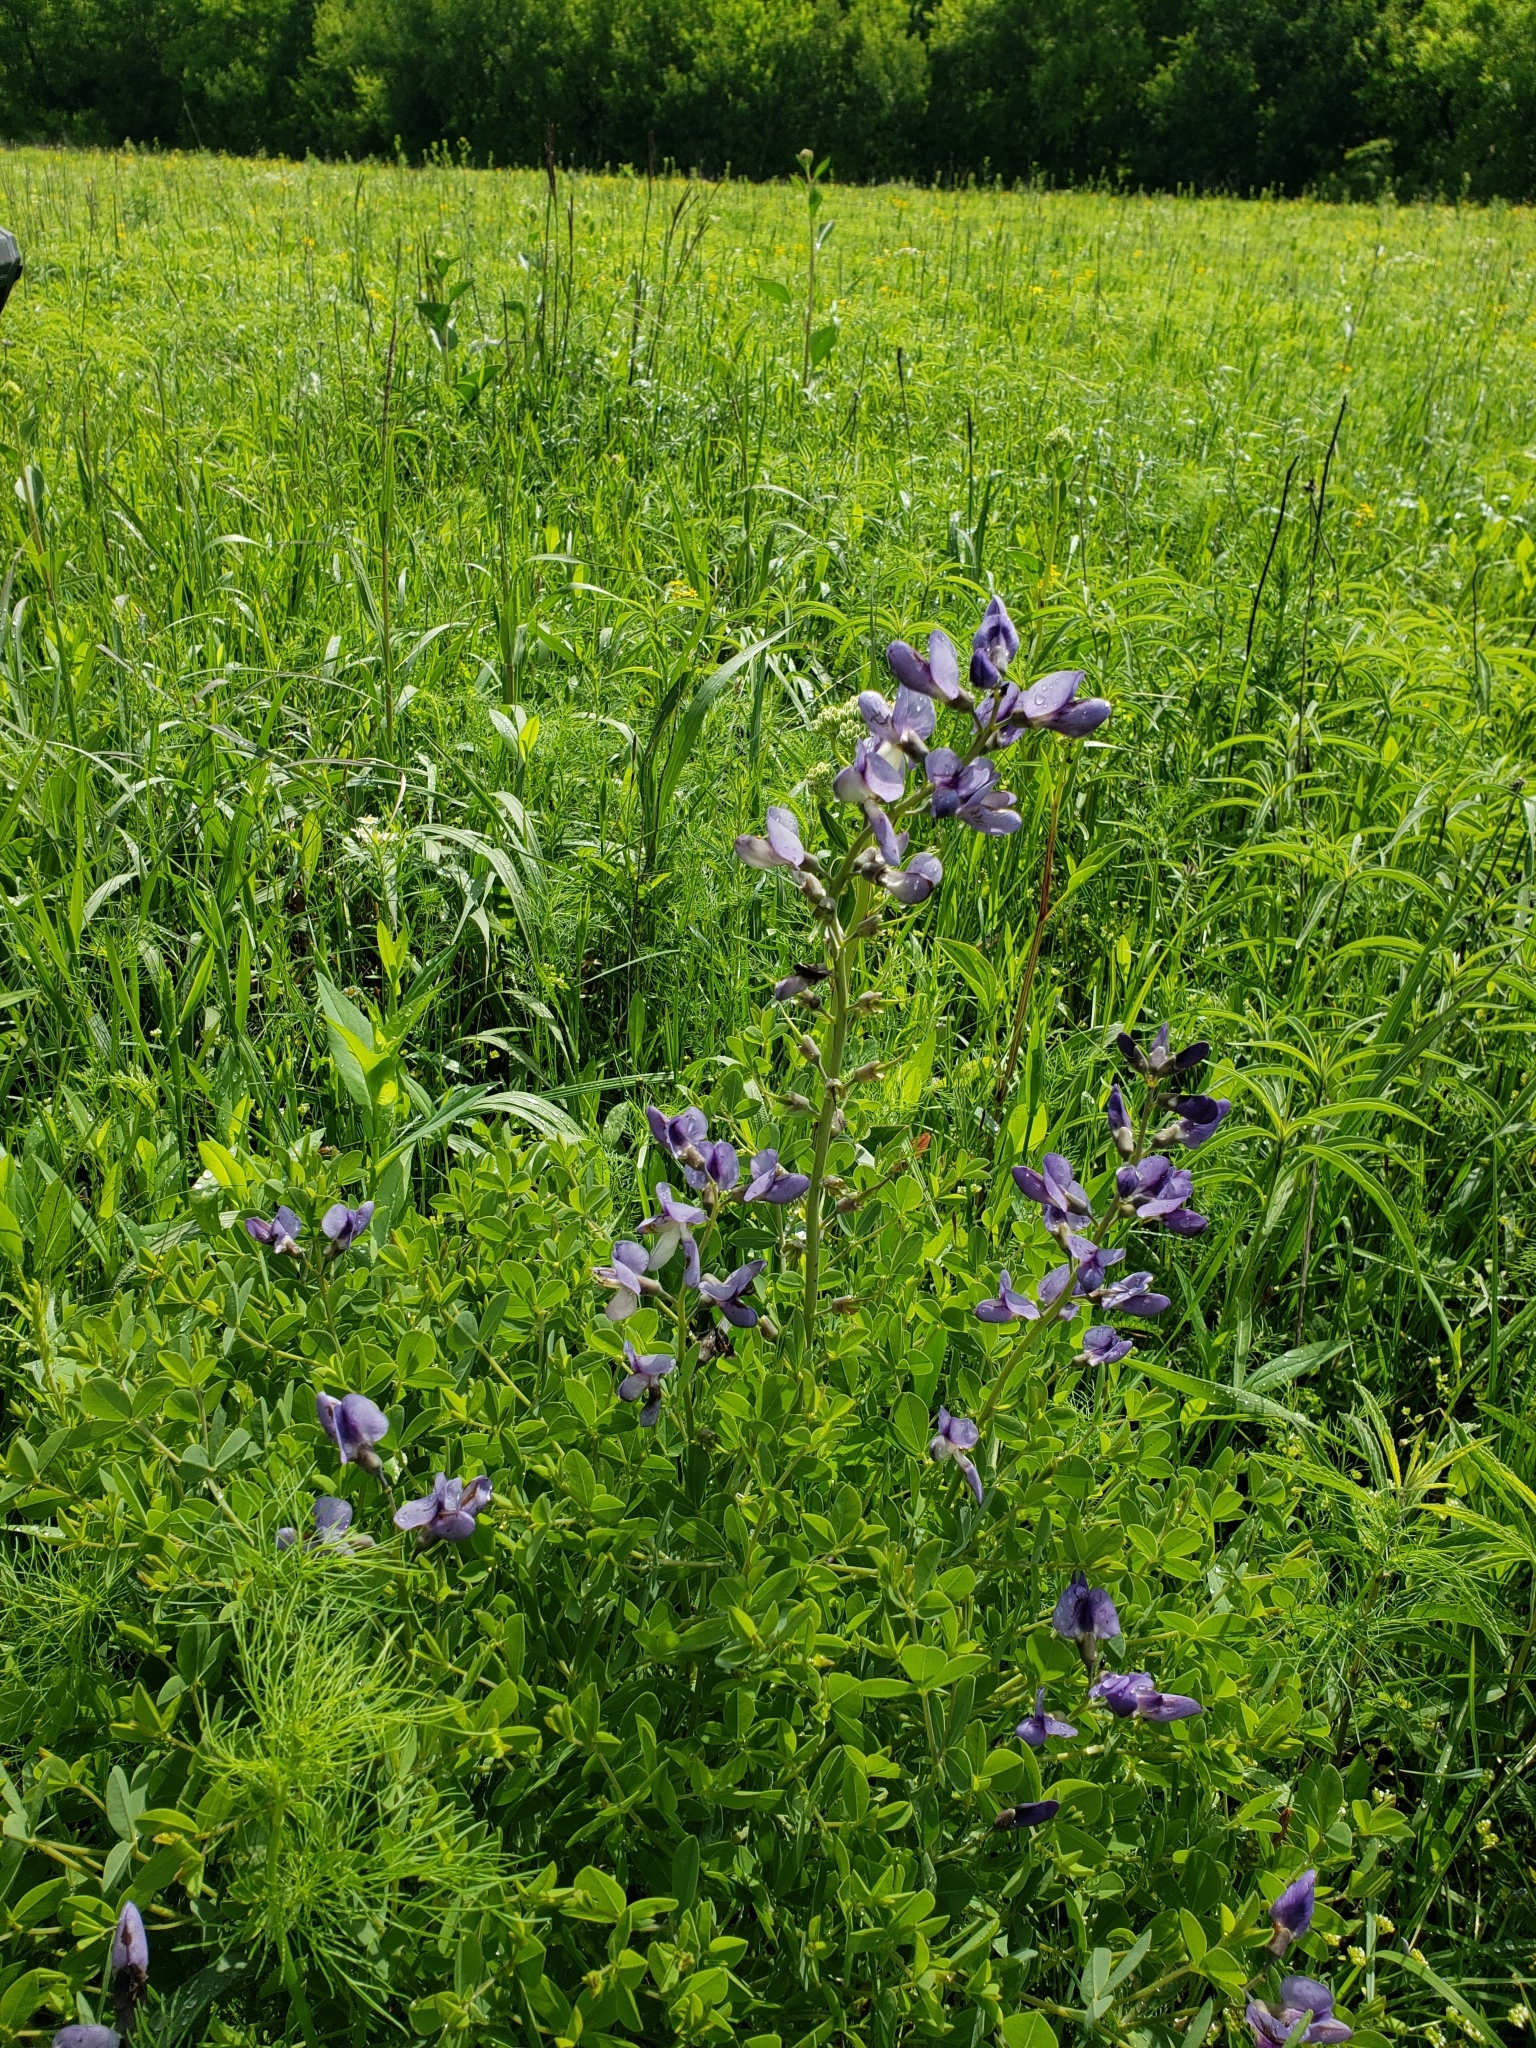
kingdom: Plantae
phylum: Tracheophyta
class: Magnoliopsida
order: Fabales
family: Fabaceae
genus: Baptisia
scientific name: Baptisia australis
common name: Blue false indigo
